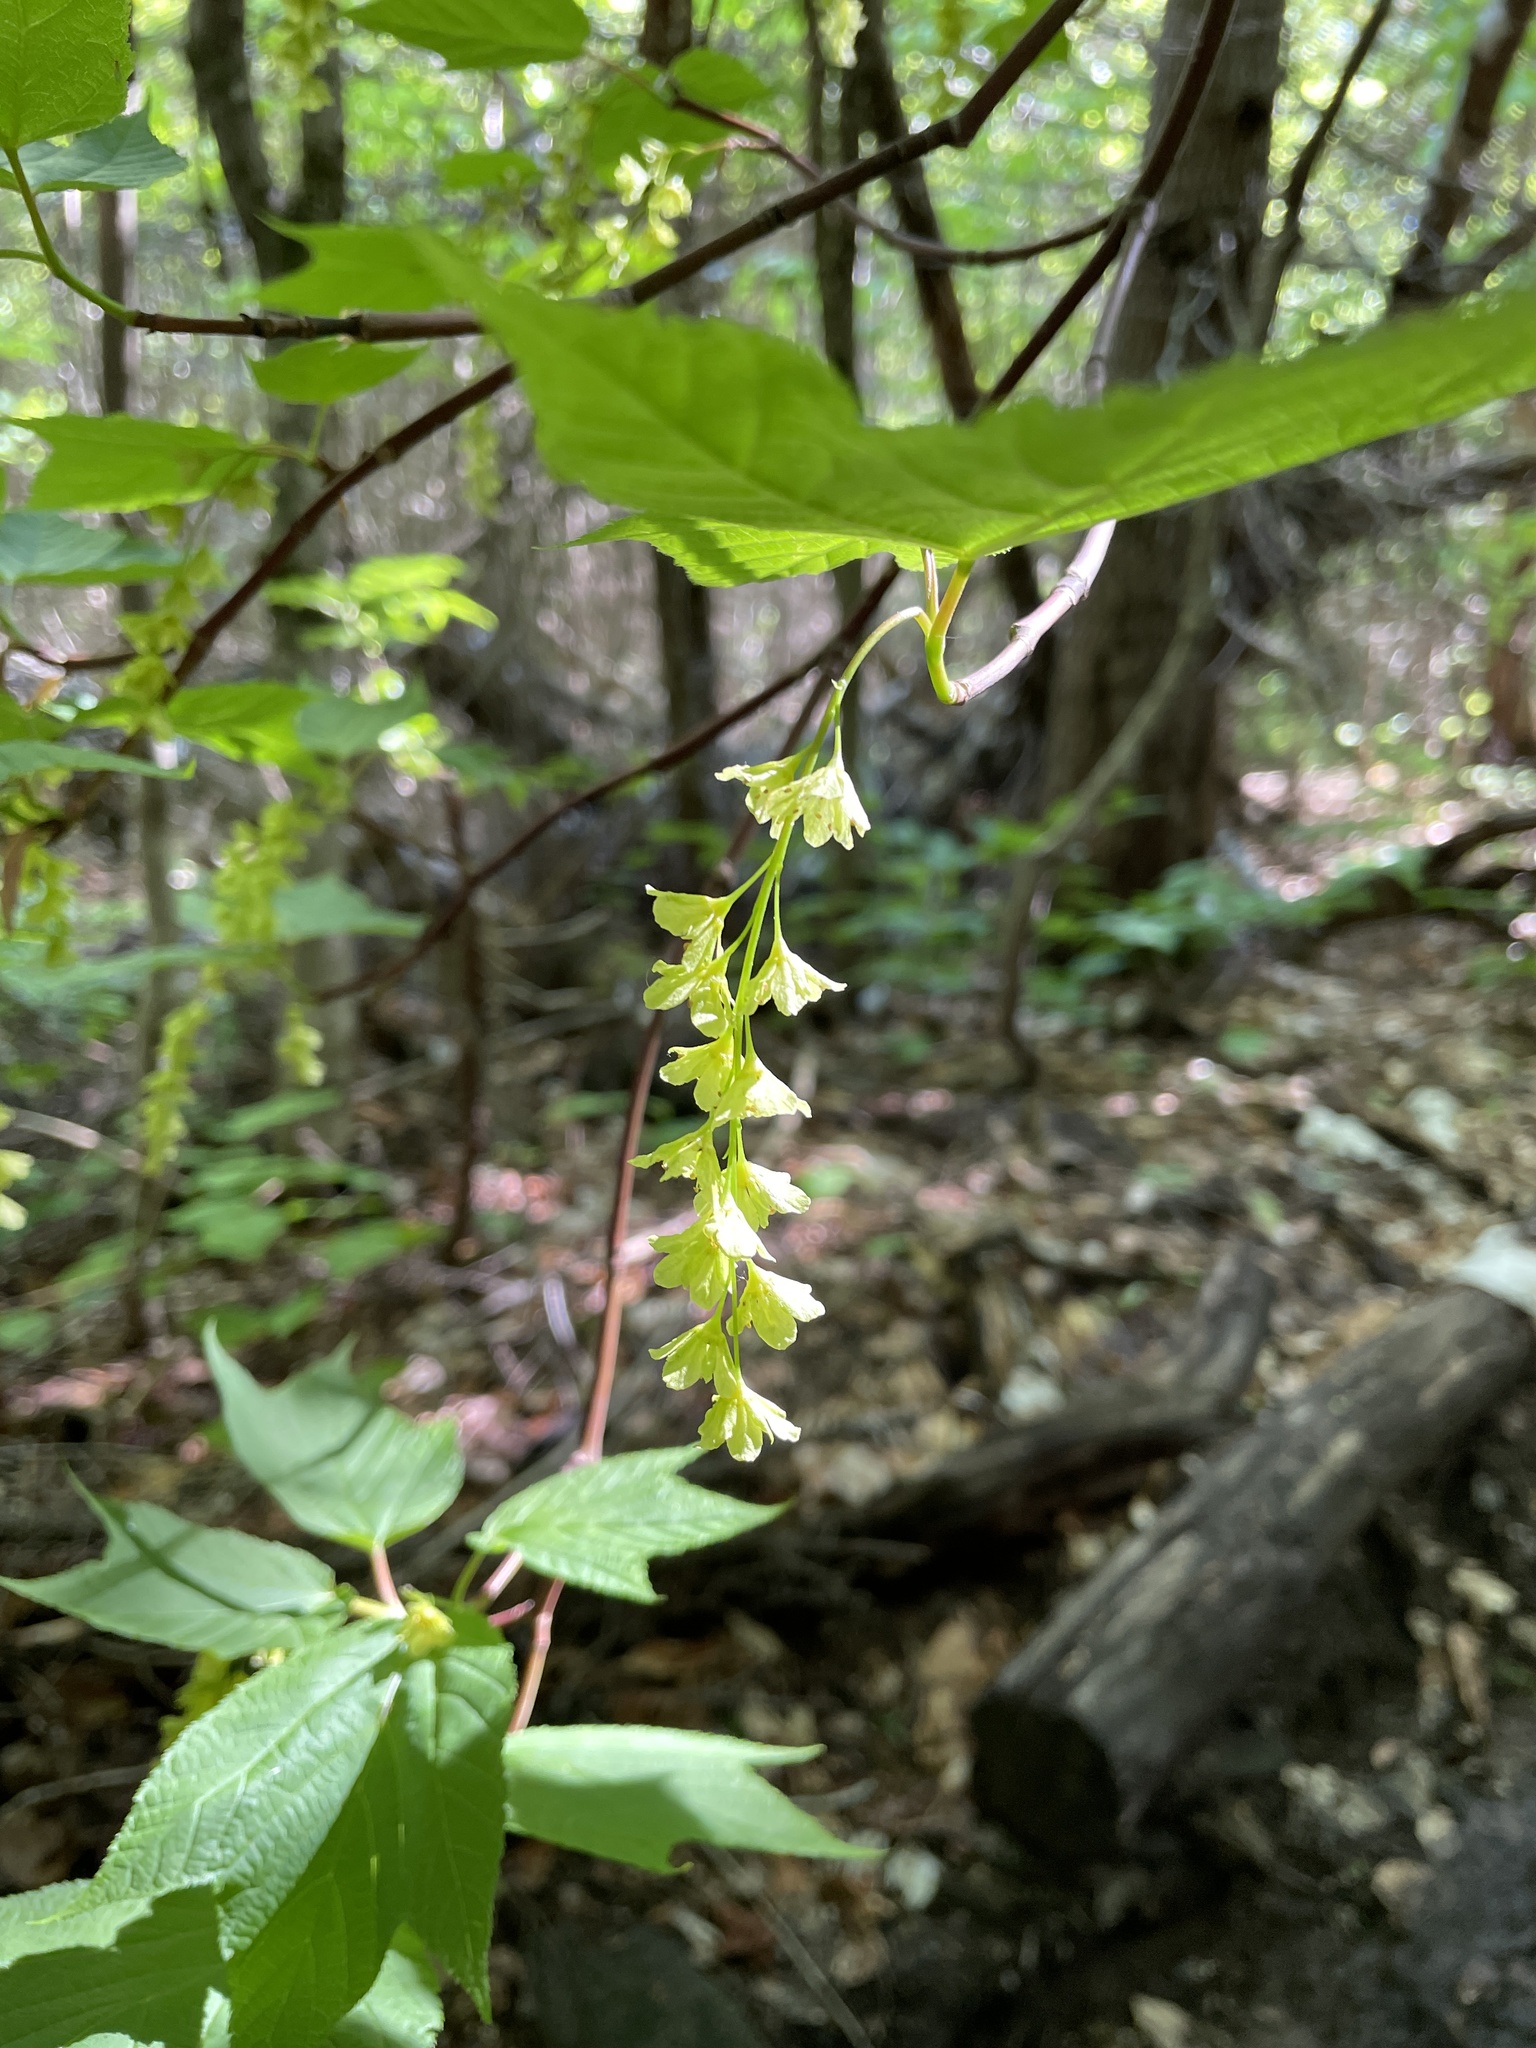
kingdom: Plantae
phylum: Tracheophyta
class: Magnoliopsida
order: Sapindales
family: Sapindaceae
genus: Acer
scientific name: Acer pensylvanicum
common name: Moosewood
